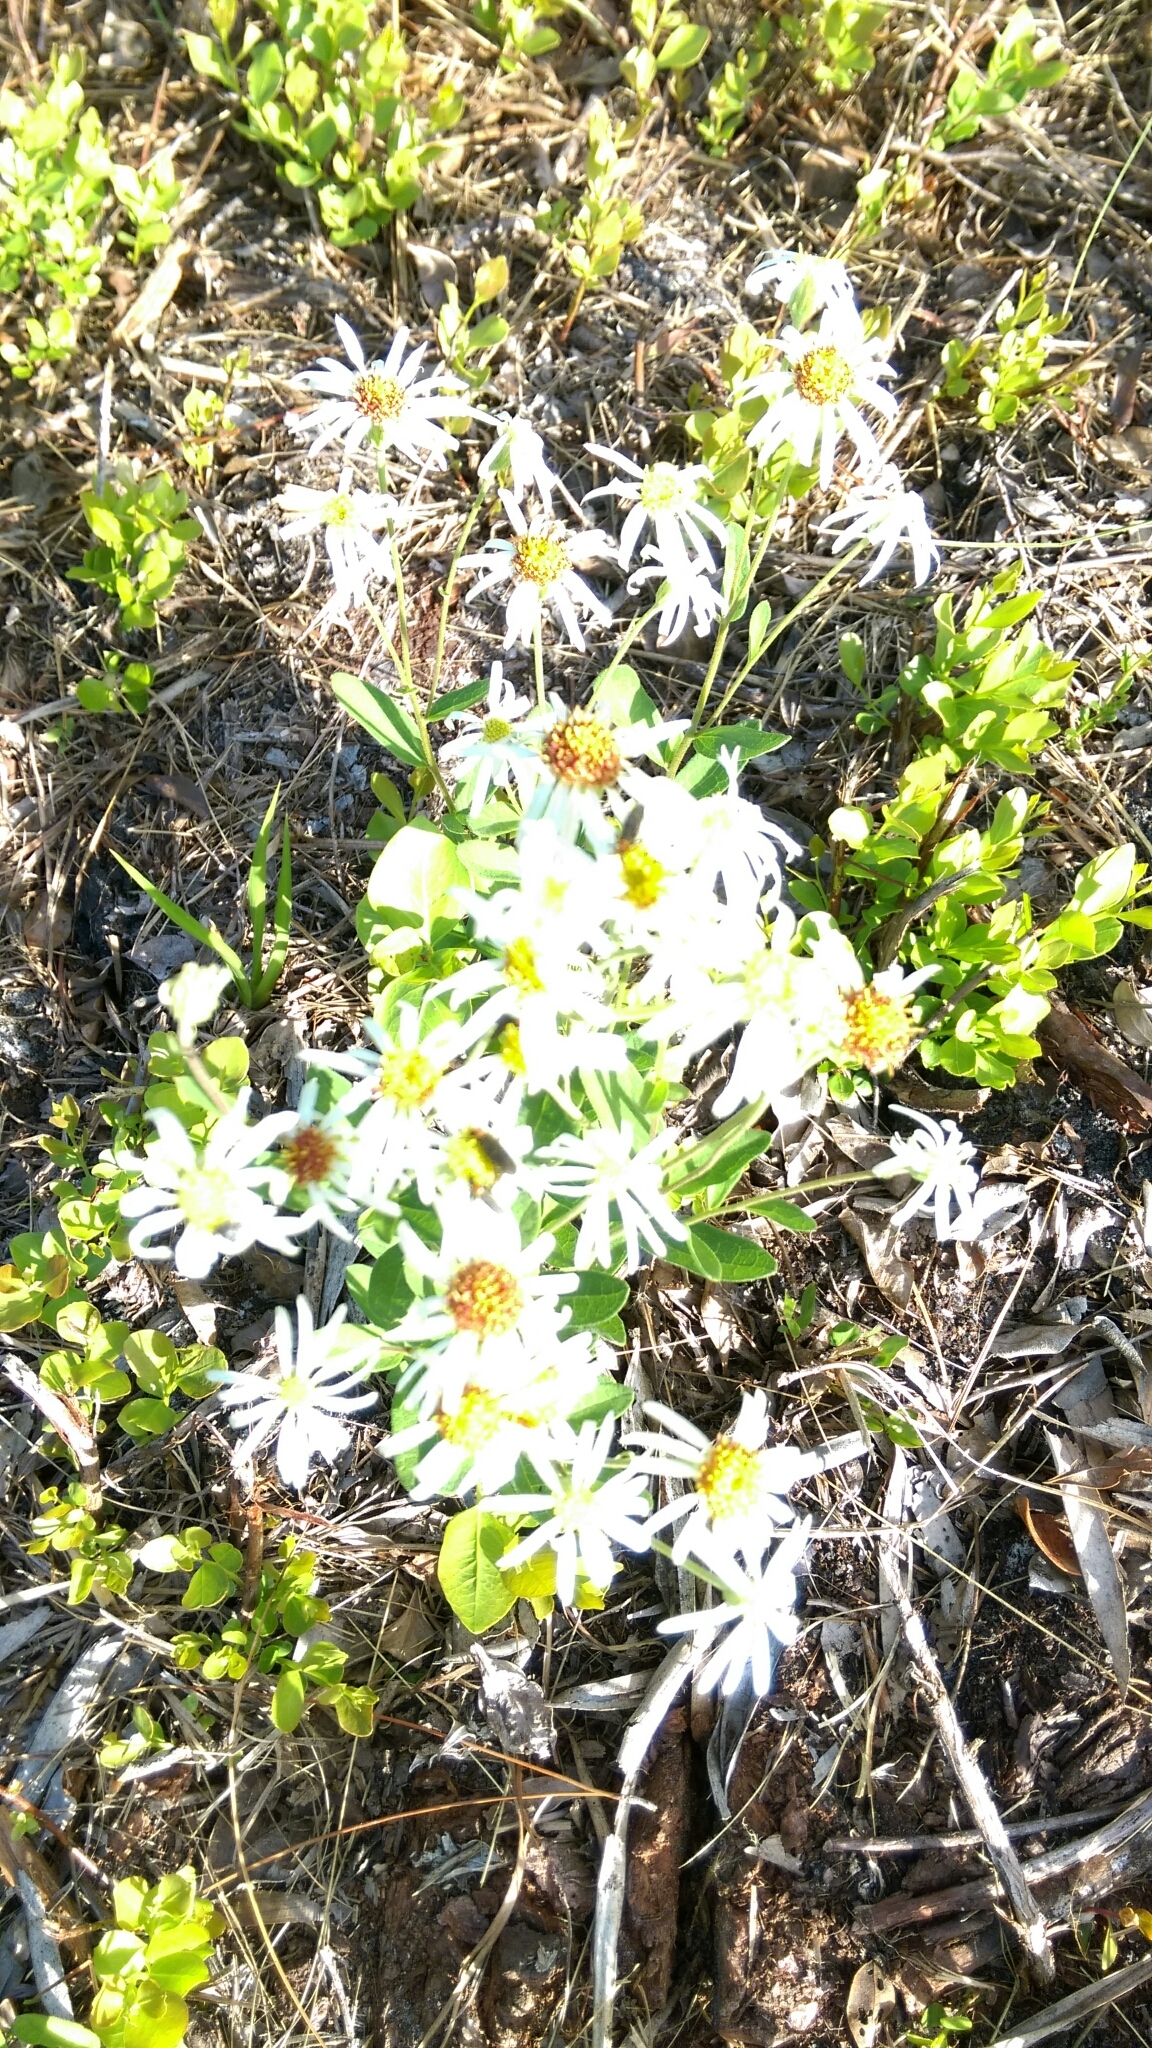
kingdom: Plantae
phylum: Tracheophyta
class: Magnoliopsida
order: Asterales
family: Asteraceae
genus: Oclemena
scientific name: Oclemena reticulata
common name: Pinebarren aster
